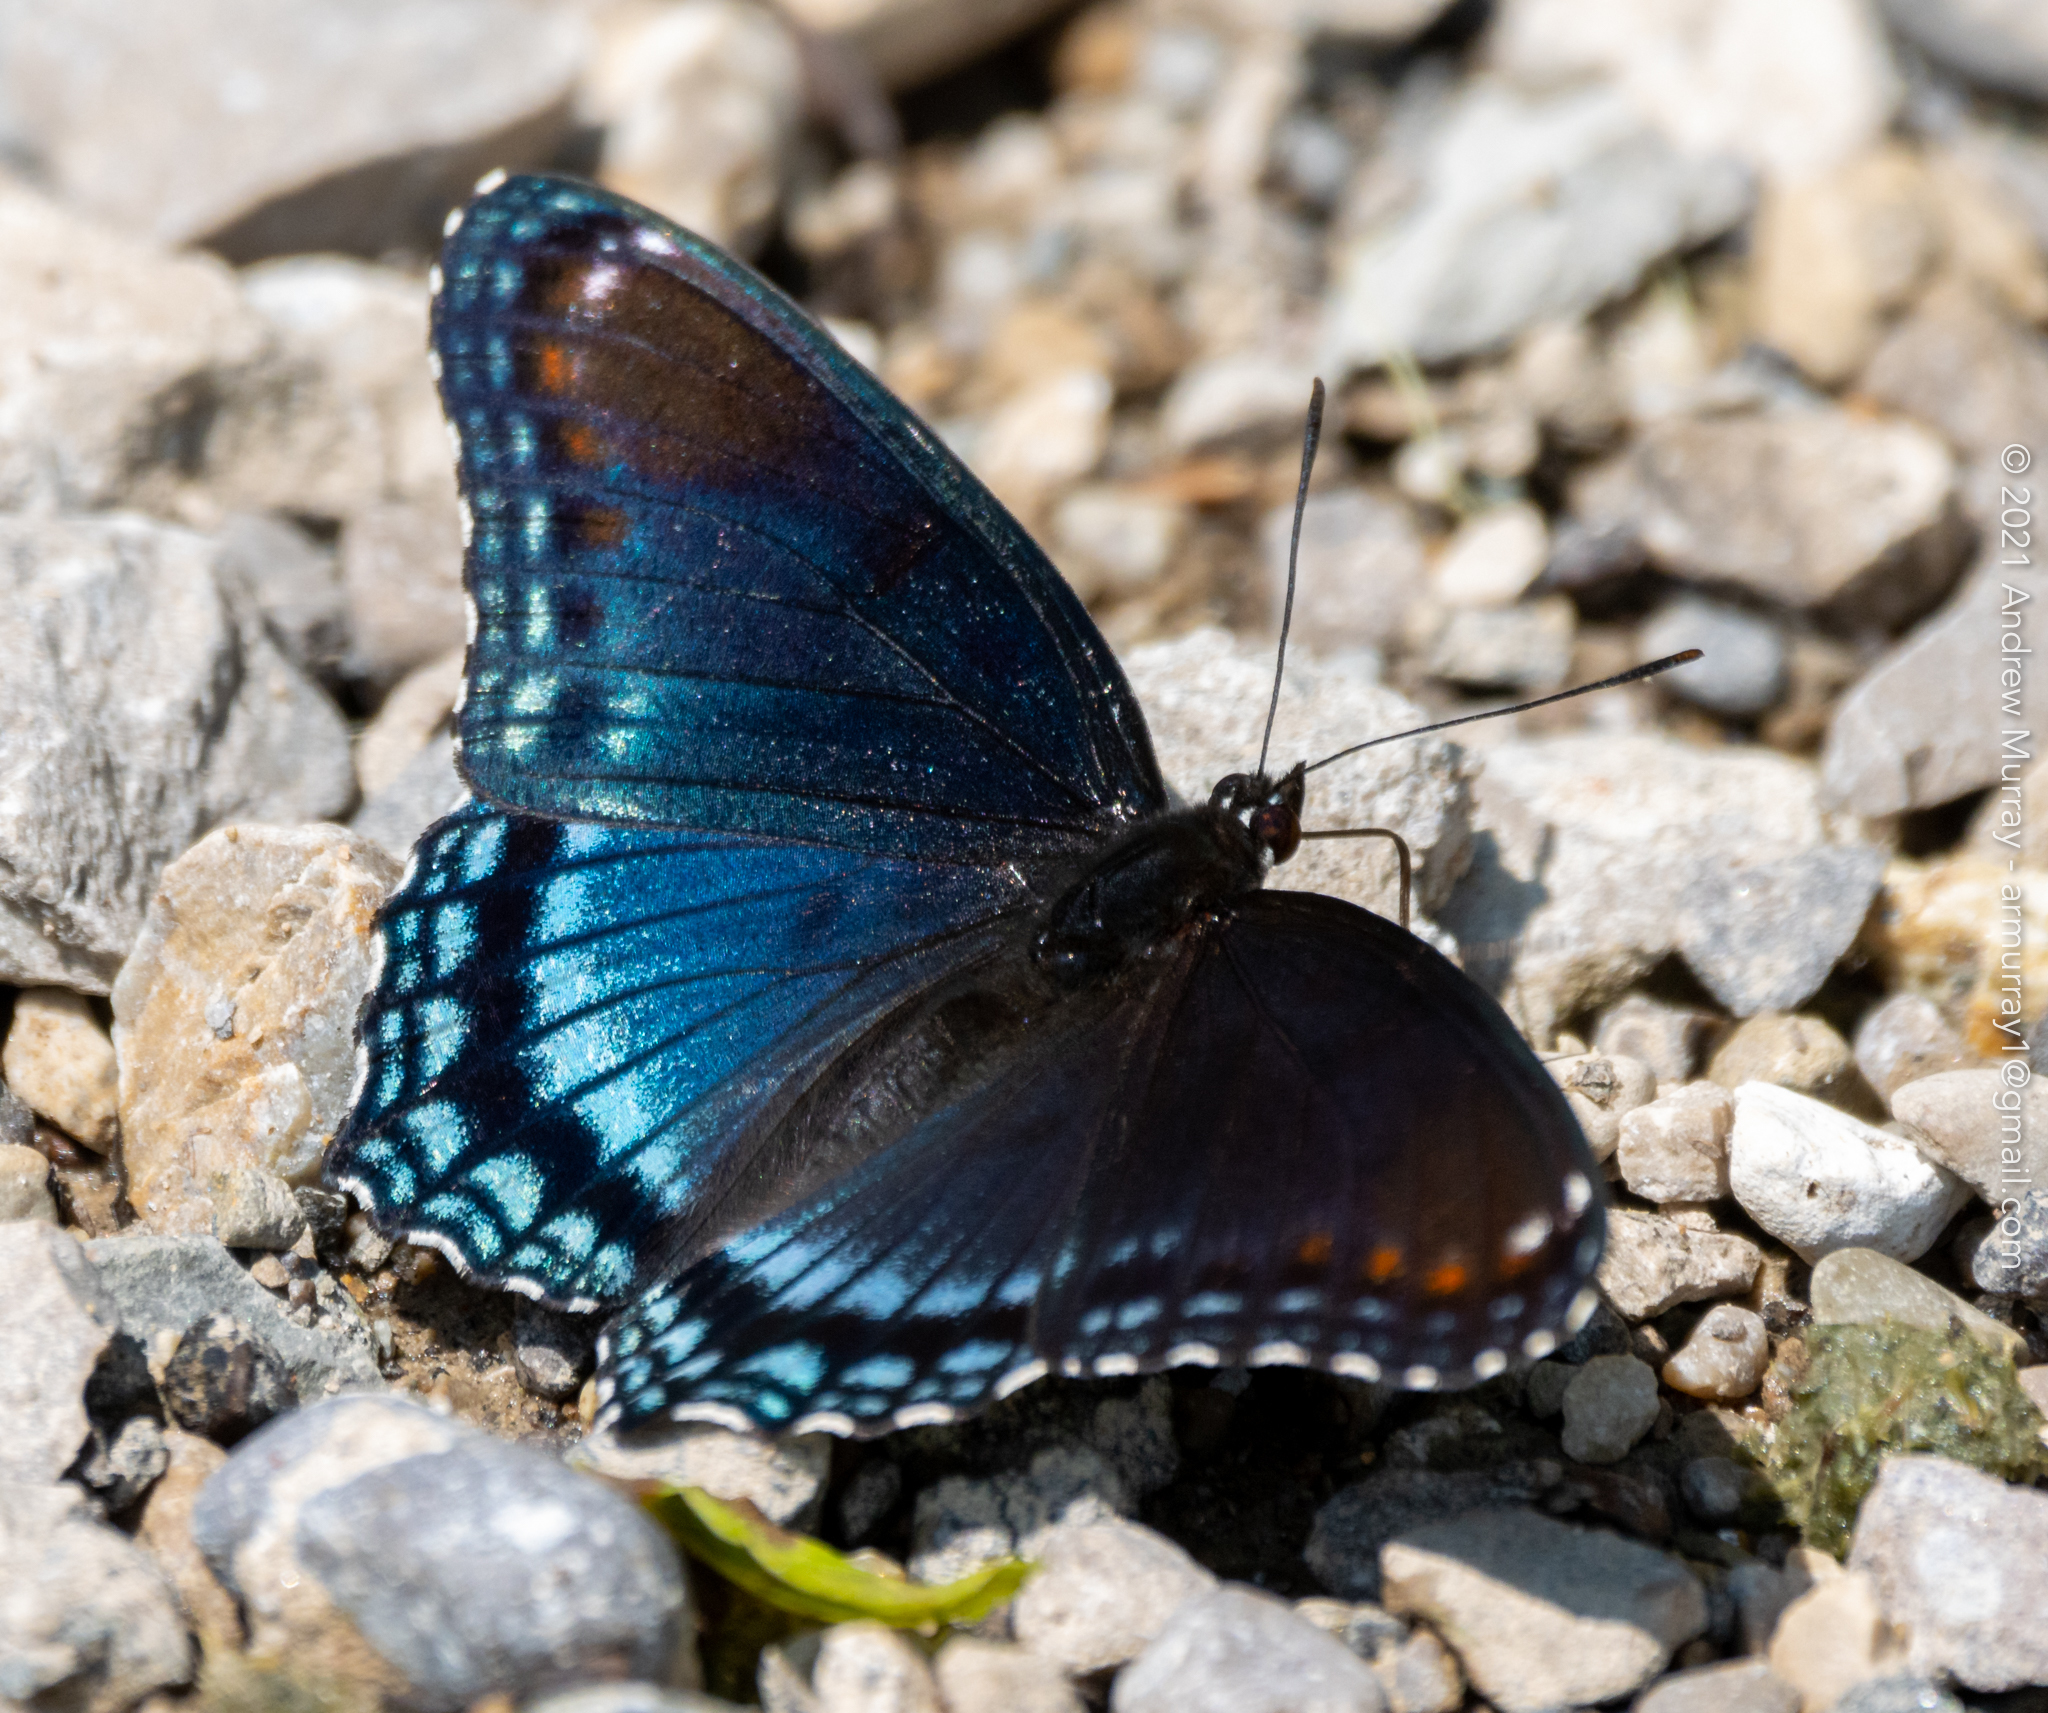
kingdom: Animalia
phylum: Arthropoda
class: Insecta
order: Lepidoptera
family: Nymphalidae
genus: Limenitis
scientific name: Limenitis astyanax
